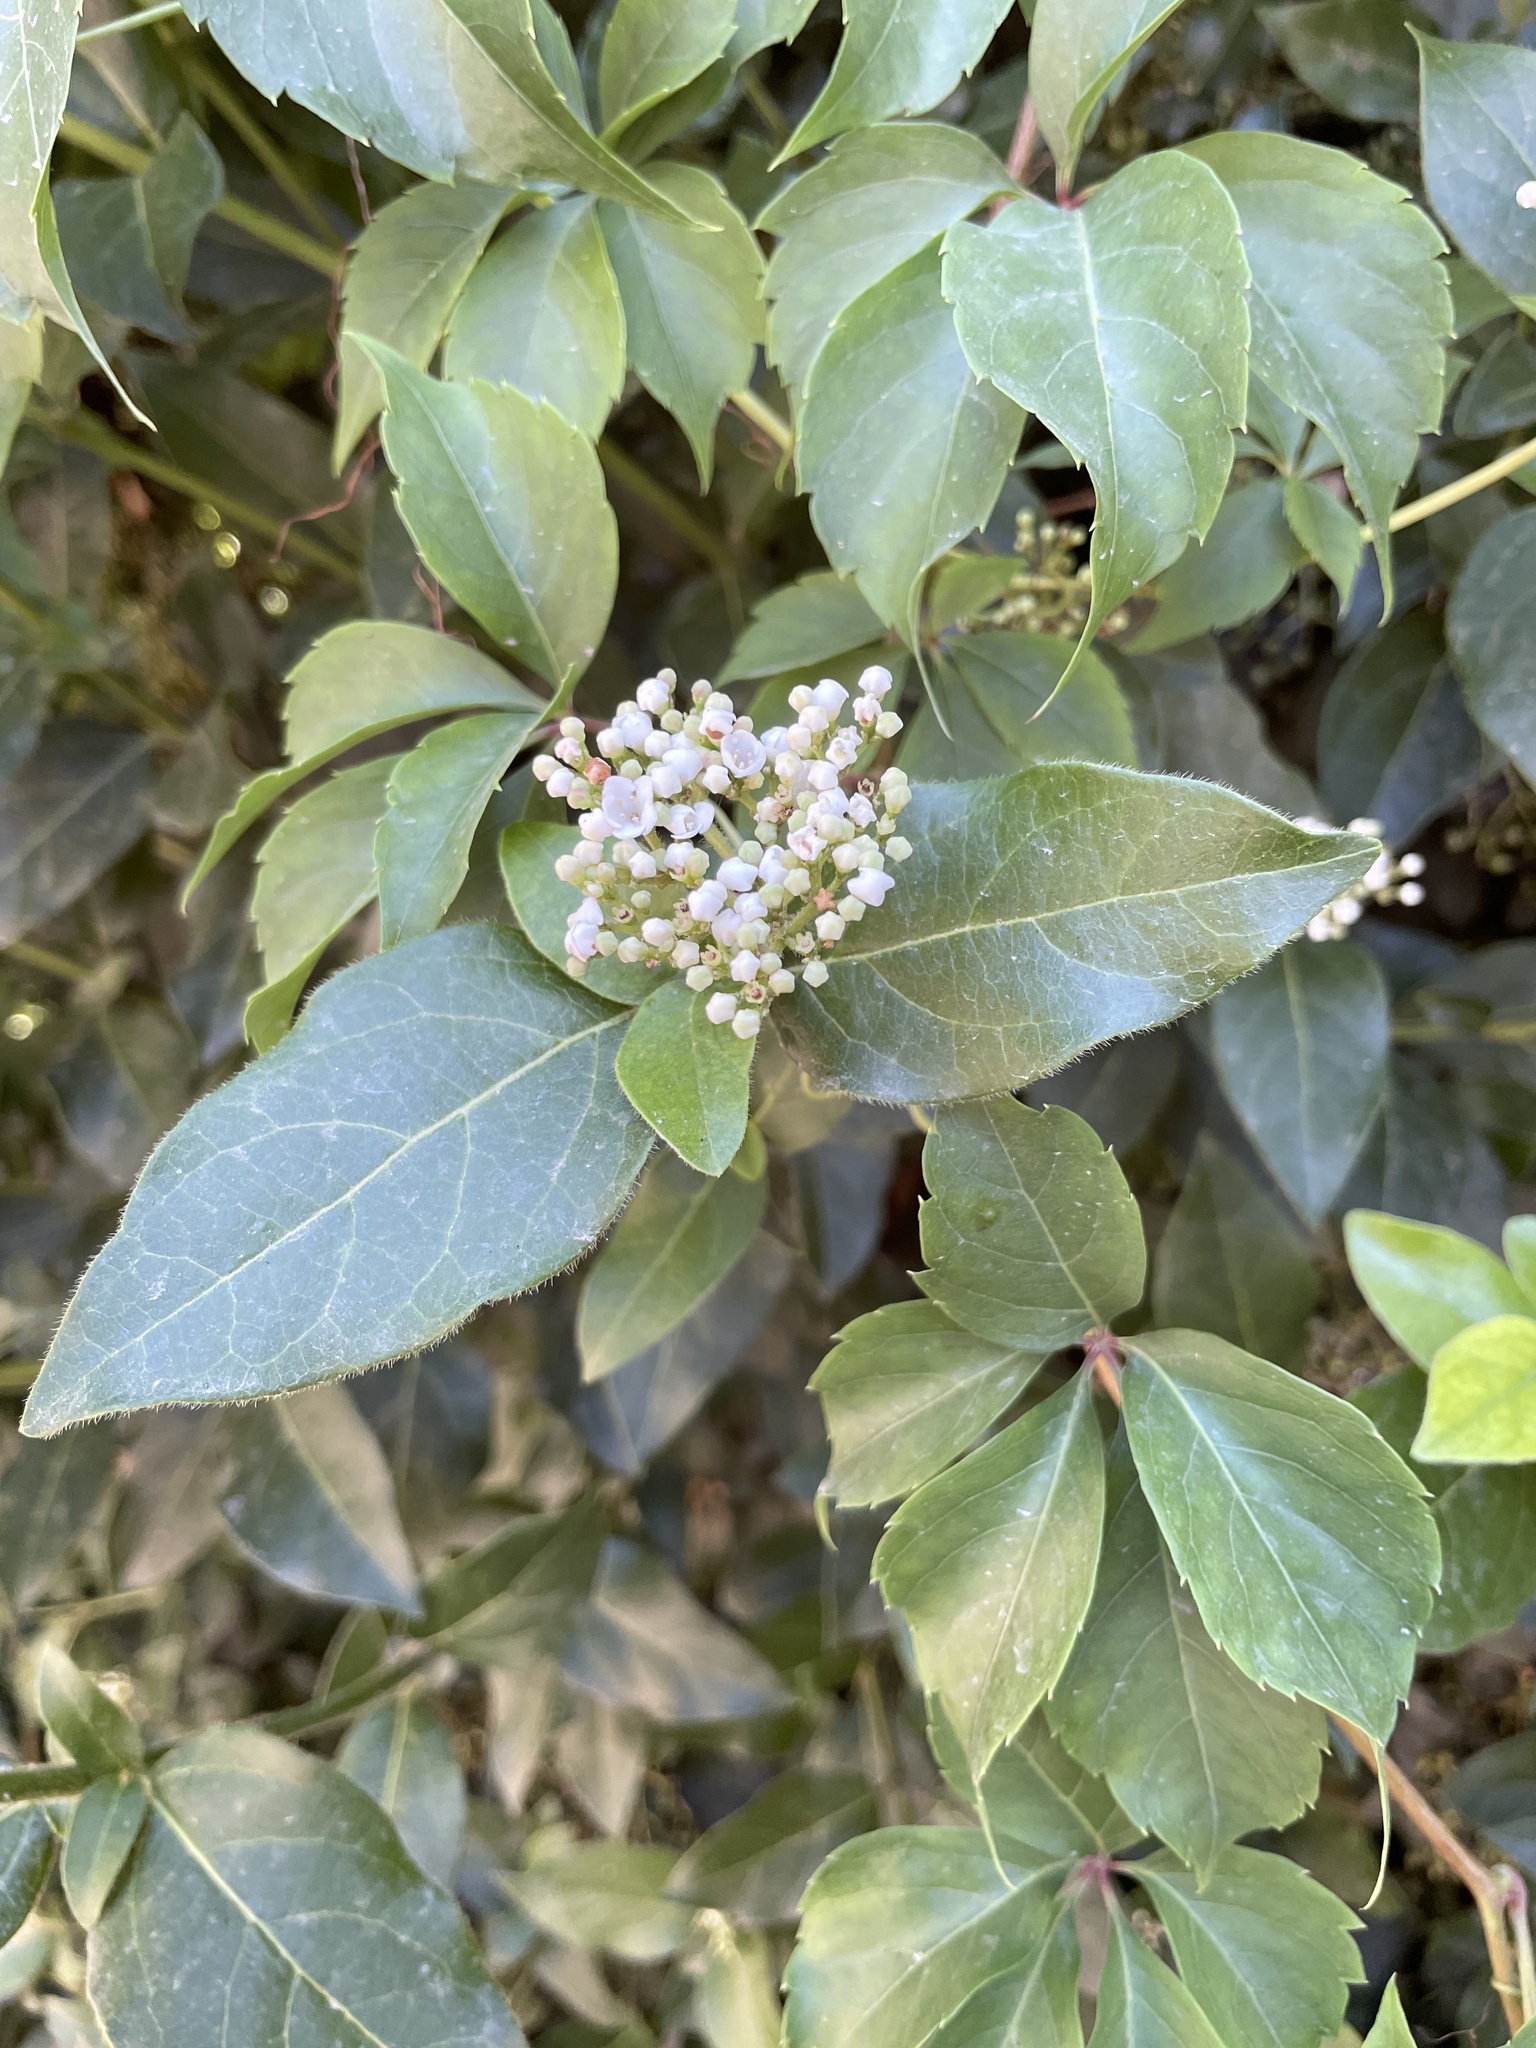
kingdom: Plantae
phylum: Tracheophyta
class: Magnoliopsida
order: Dipsacales
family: Viburnaceae
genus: Viburnum
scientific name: Viburnum tinus
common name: Laurustinus
